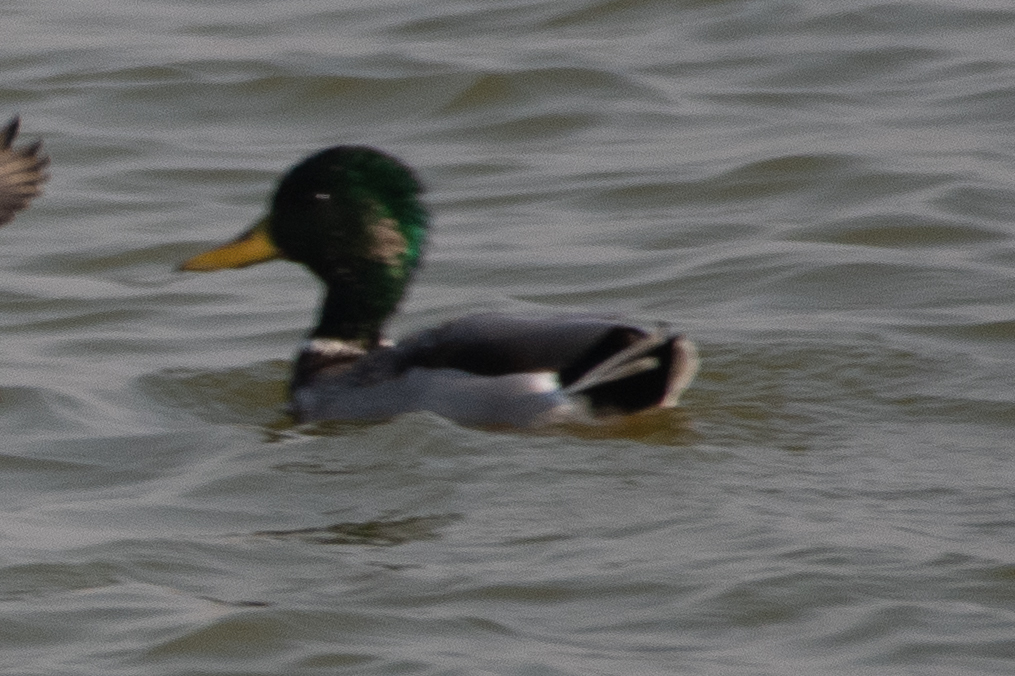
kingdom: Animalia
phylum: Chordata
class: Aves
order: Anseriformes
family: Anatidae
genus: Anas
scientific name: Anas platyrhynchos
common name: Mallard
